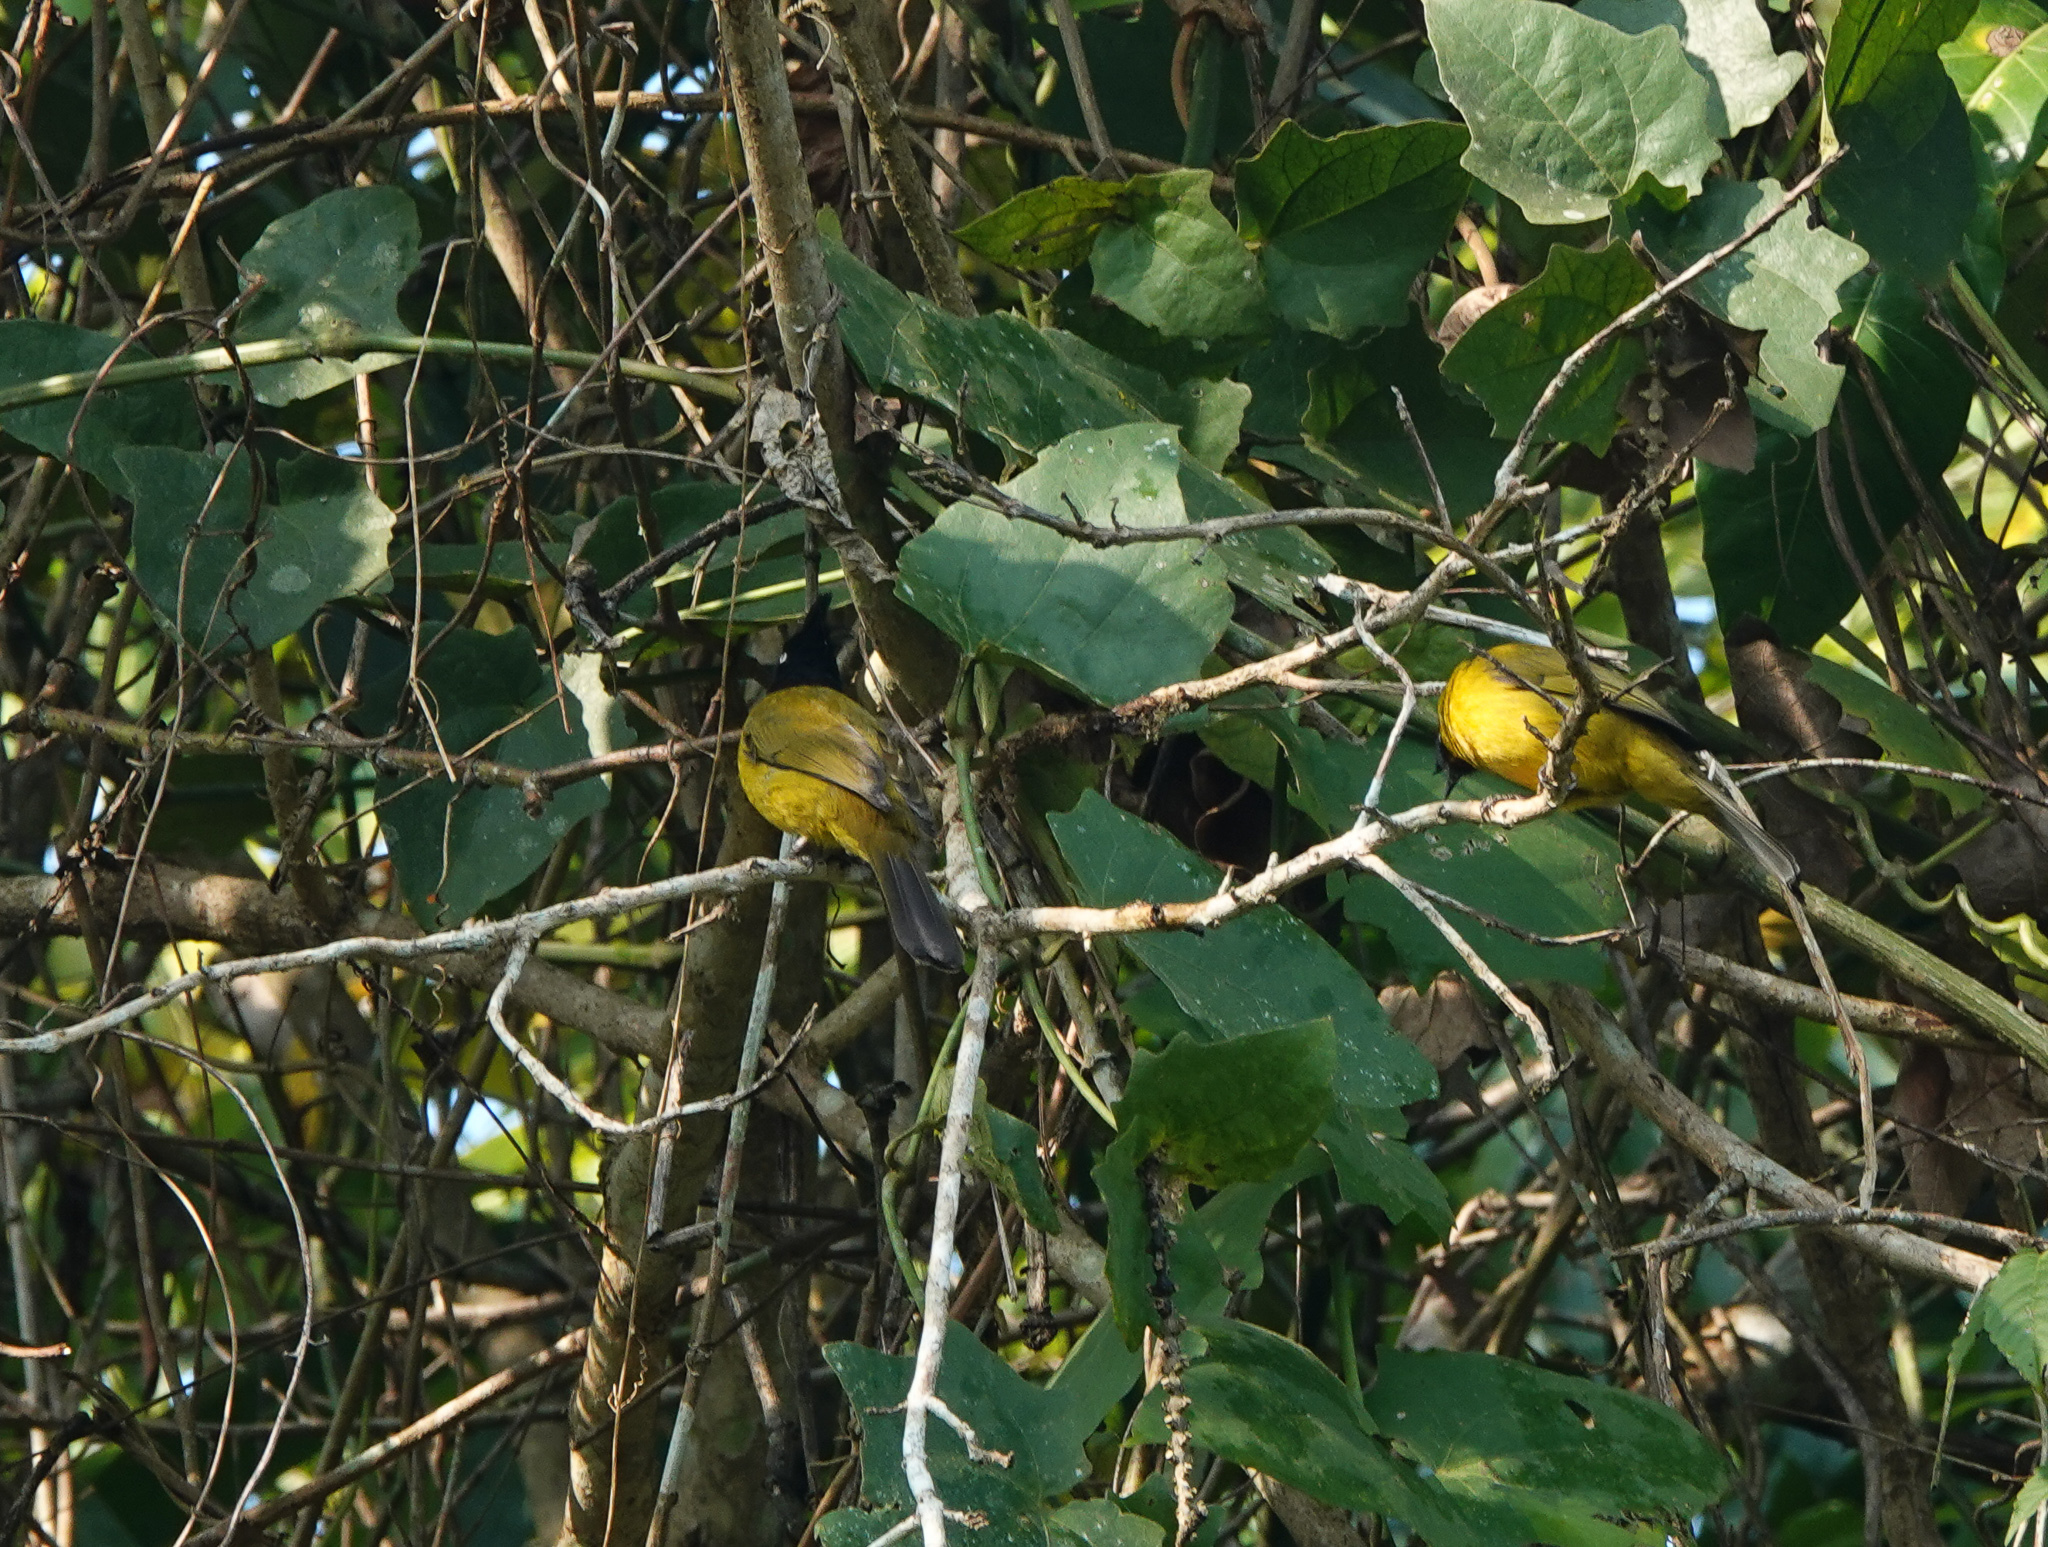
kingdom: Animalia
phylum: Chordata
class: Aves
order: Passeriformes
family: Pycnonotidae
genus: Pycnonotus
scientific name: Pycnonotus flaviventris
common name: Black-crested bulbul
